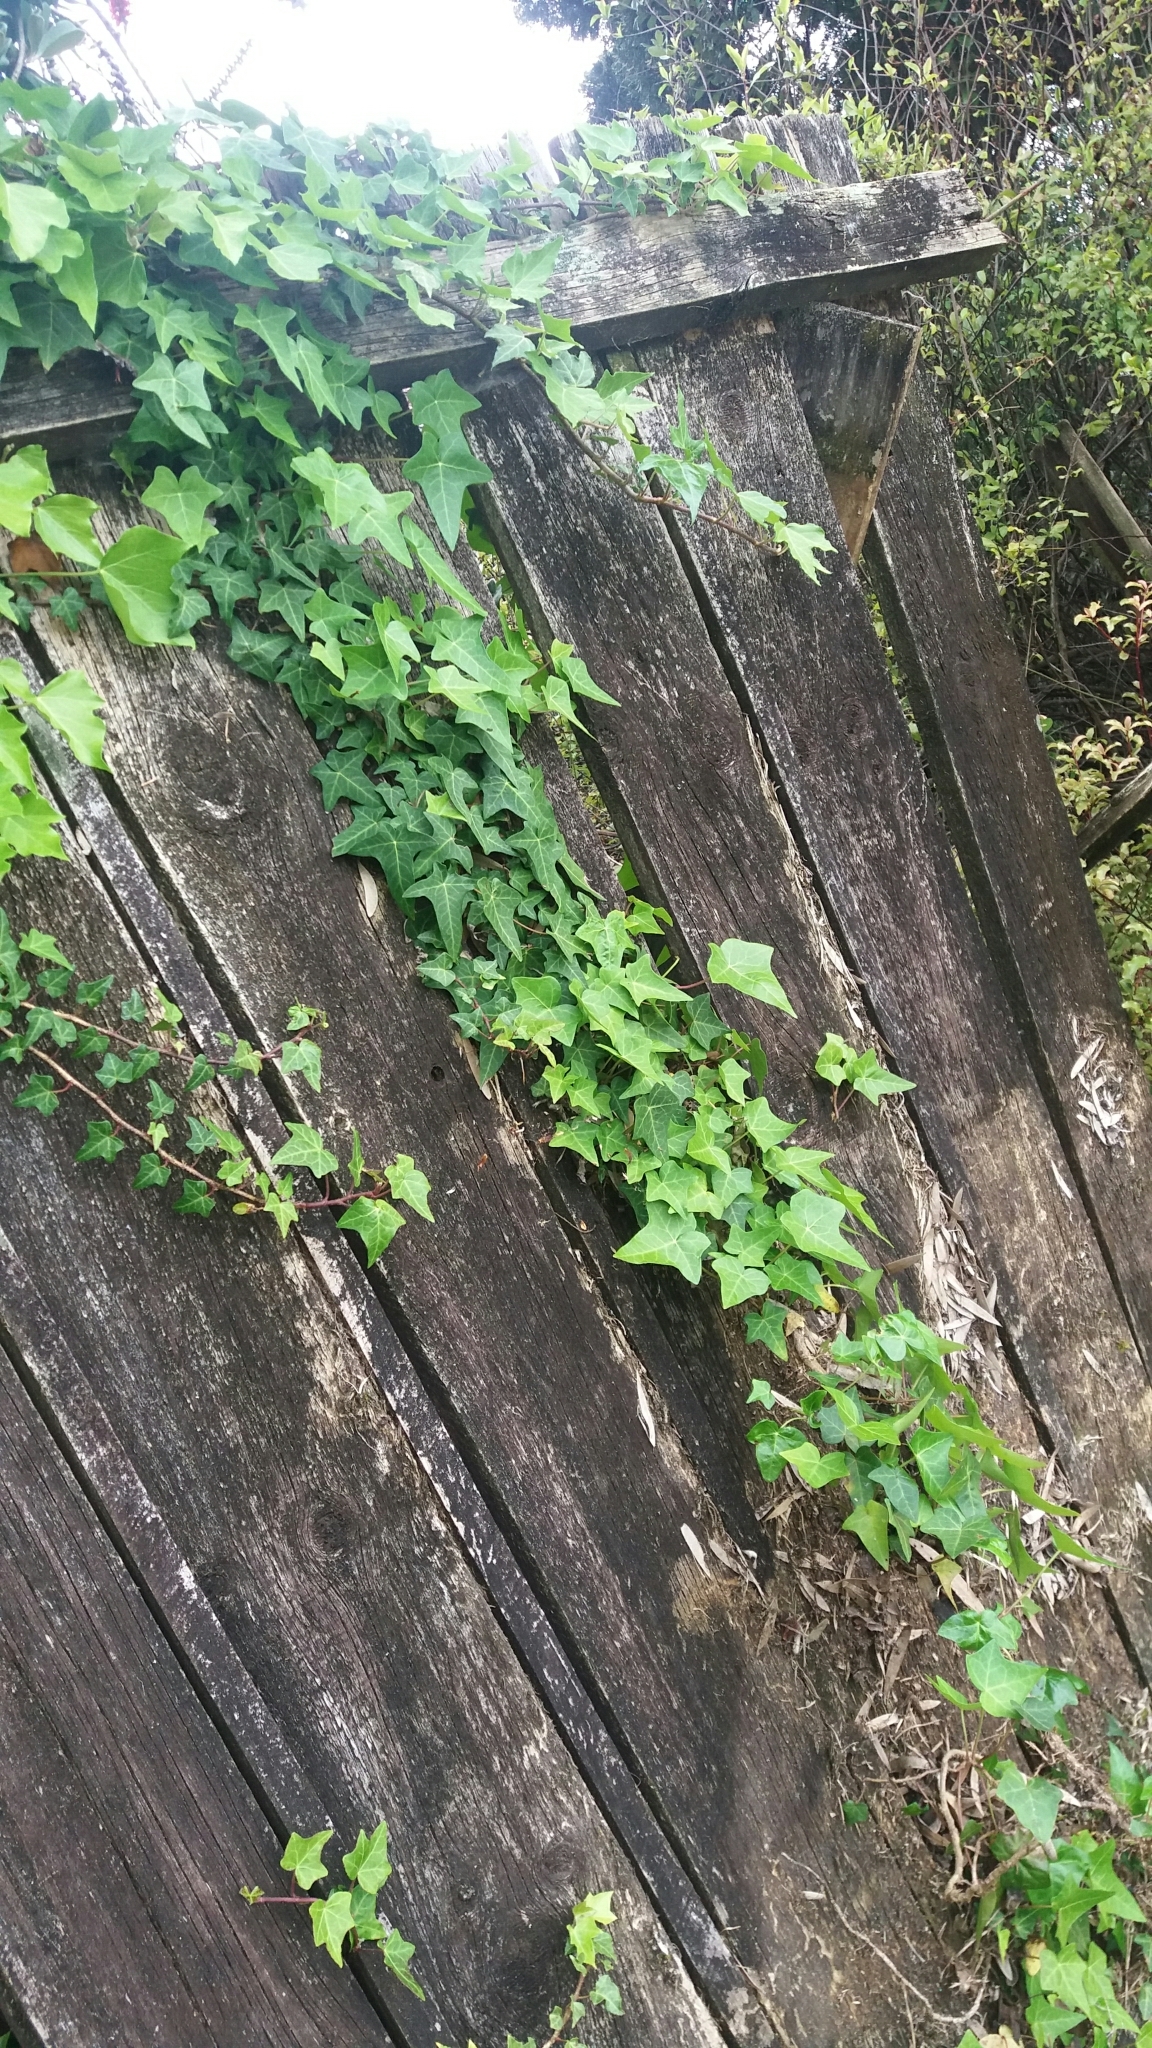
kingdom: Plantae
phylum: Tracheophyta
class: Magnoliopsida
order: Apiales
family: Araliaceae
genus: Hedera
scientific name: Hedera helix
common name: Ivy
